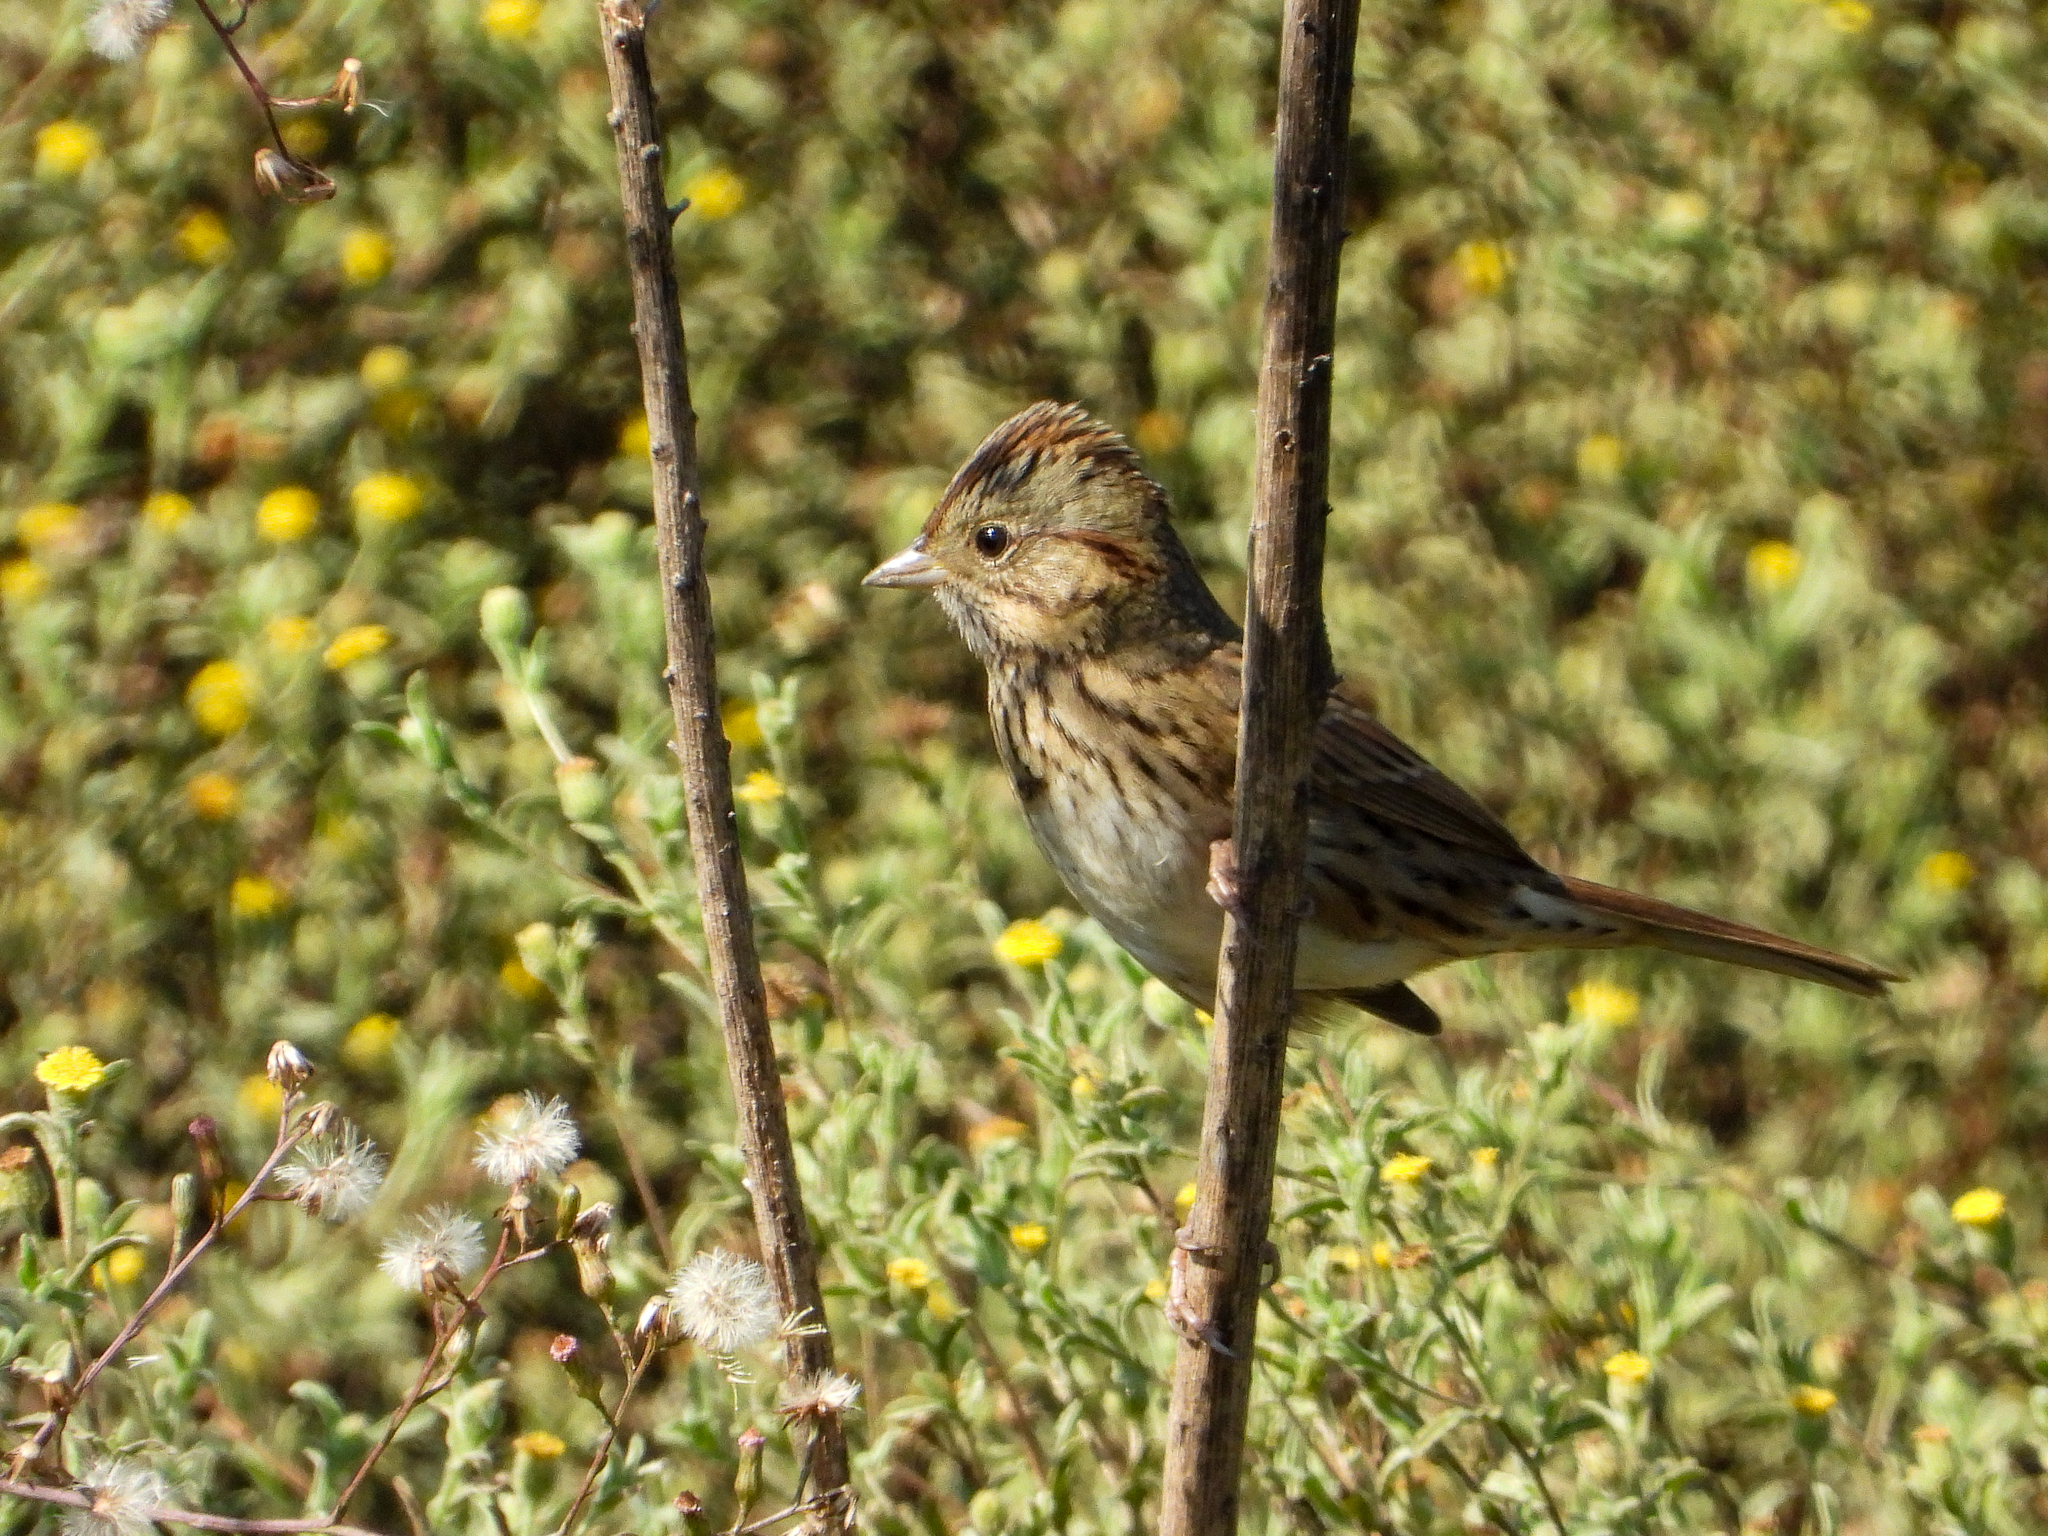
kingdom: Animalia
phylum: Chordata
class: Aves
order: Passeriformes
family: Passerellidae
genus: Melospiza
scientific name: Melospiza lincolnii
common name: Lincoln's sparrow
